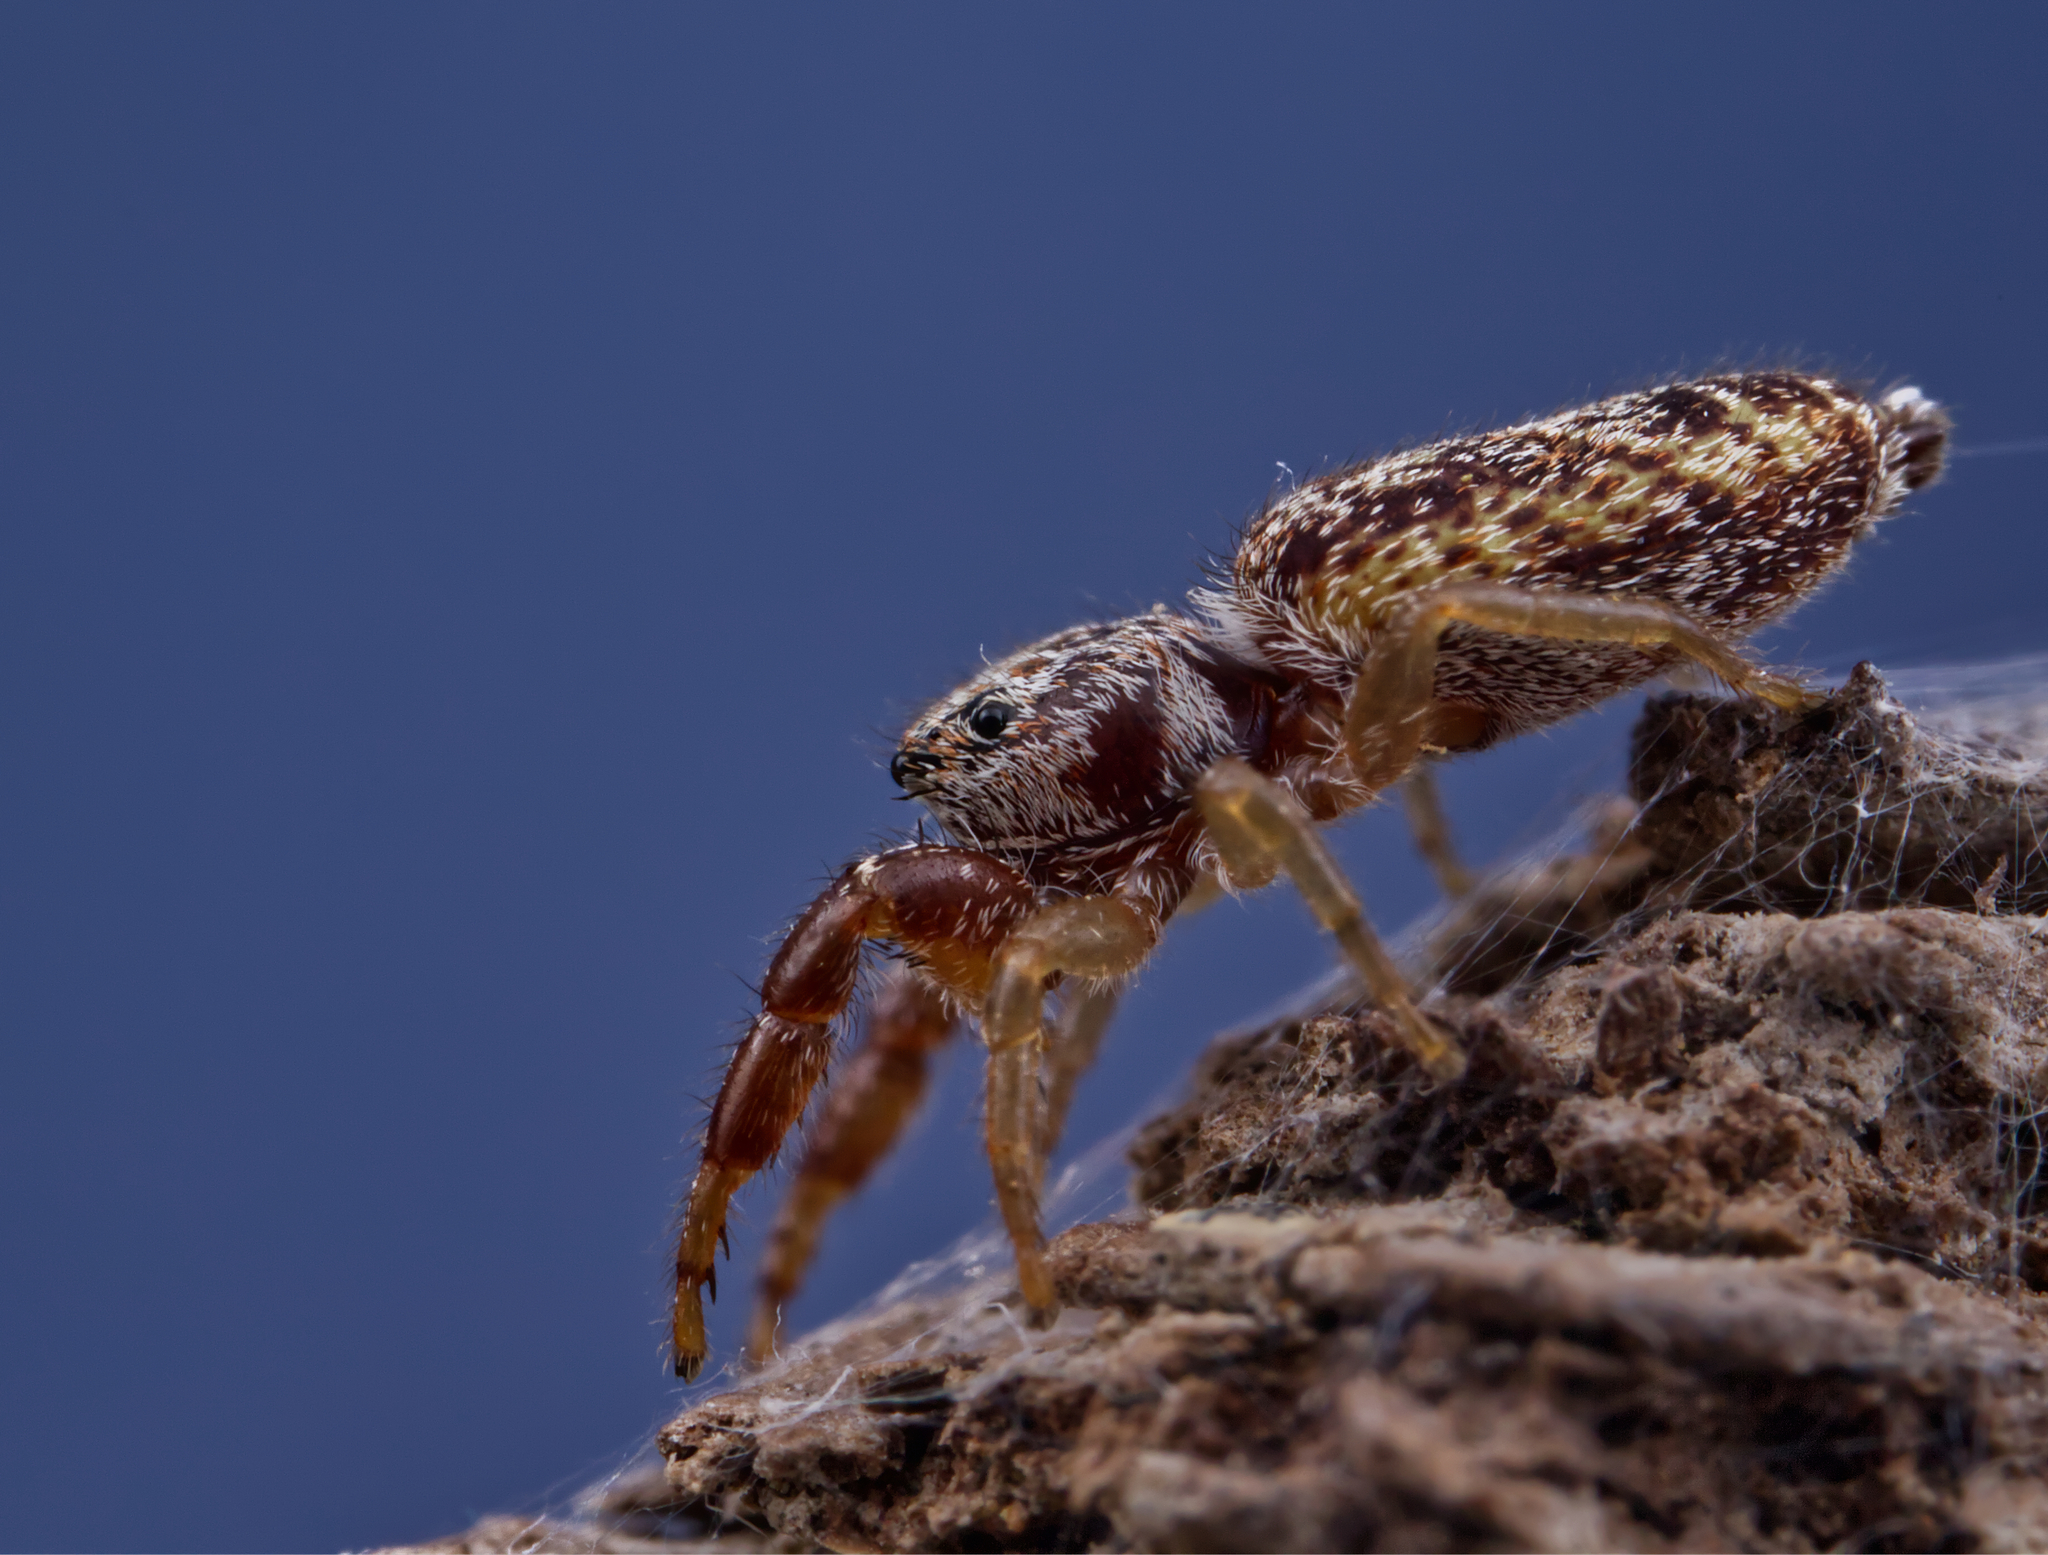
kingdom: Animalia
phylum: Arthropoda
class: Arachnida
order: Araneae
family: Salticidae
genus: Hentzia
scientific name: Hentzia palmarum
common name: Common hentz jumping spider
